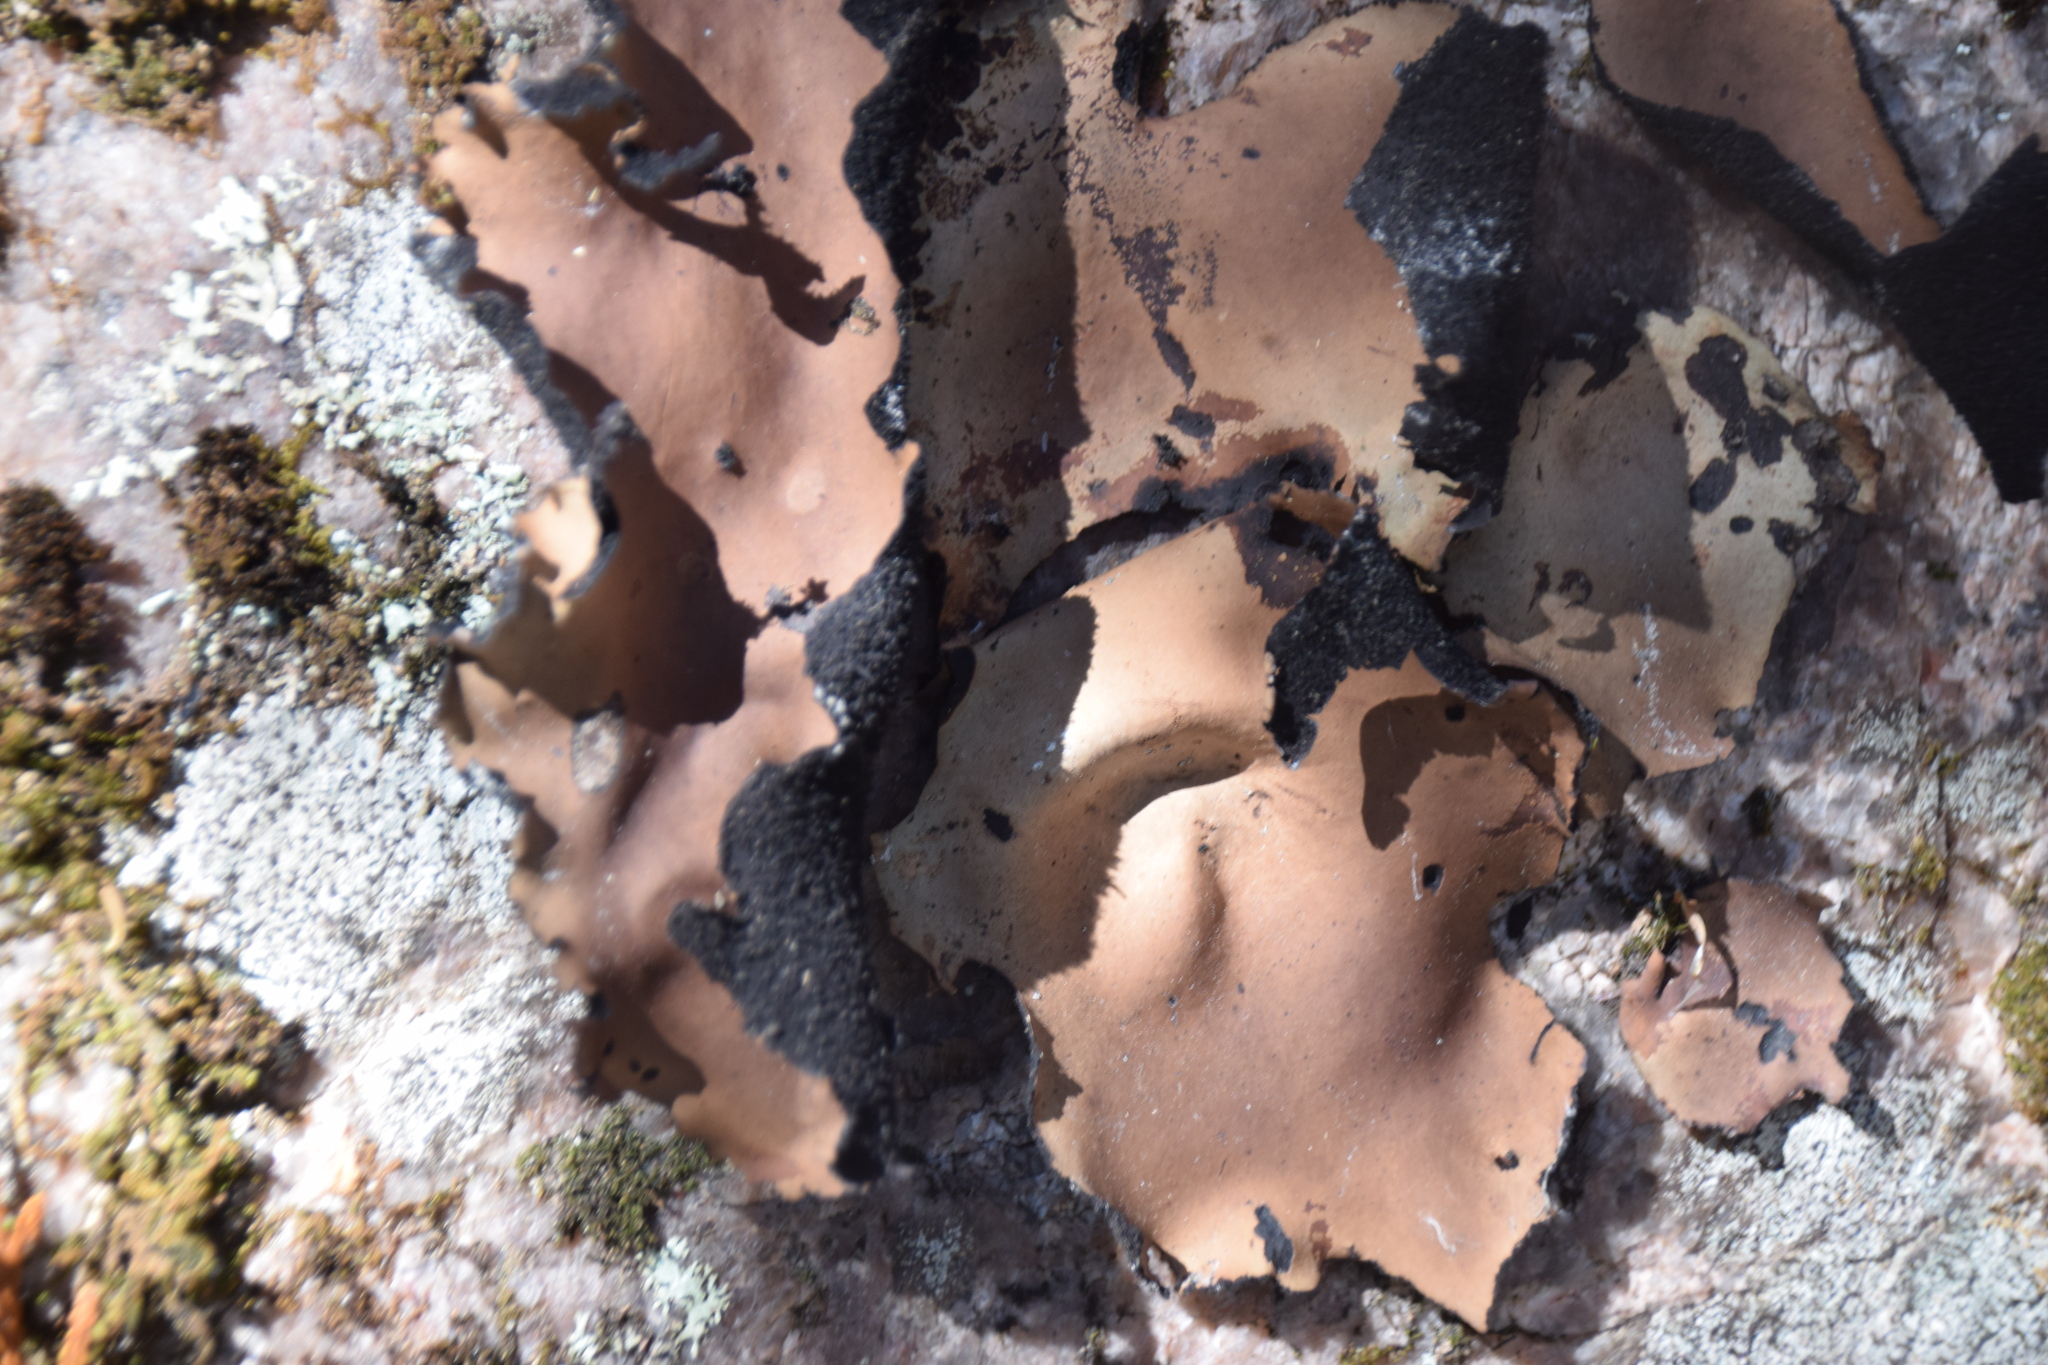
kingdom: Fungi
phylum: Ascomycota
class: Lecanoromycetes
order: Umbilicariales
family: Umbilicariaceae
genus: Umbilicaria
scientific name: Umbilicaria mammulata
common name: Smooth rock tripe
